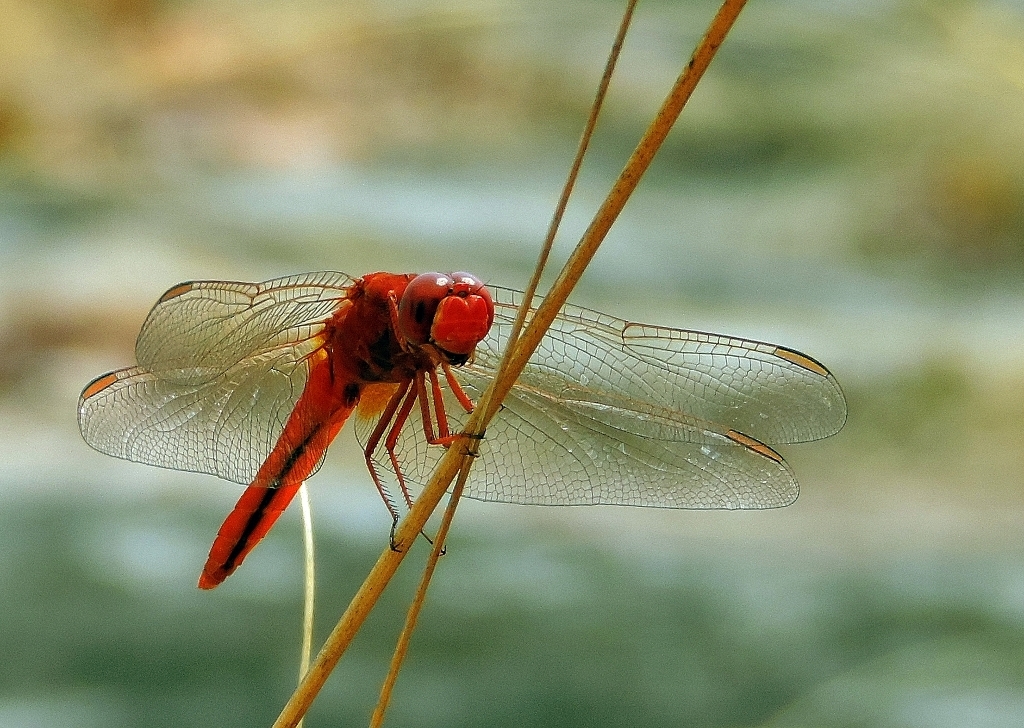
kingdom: Animalia
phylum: Arthropoda
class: Insecta
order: Odonata
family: Libellulidae
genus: Crocothemis
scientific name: Crocothemis erythraea
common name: Scarlet dragonfly
